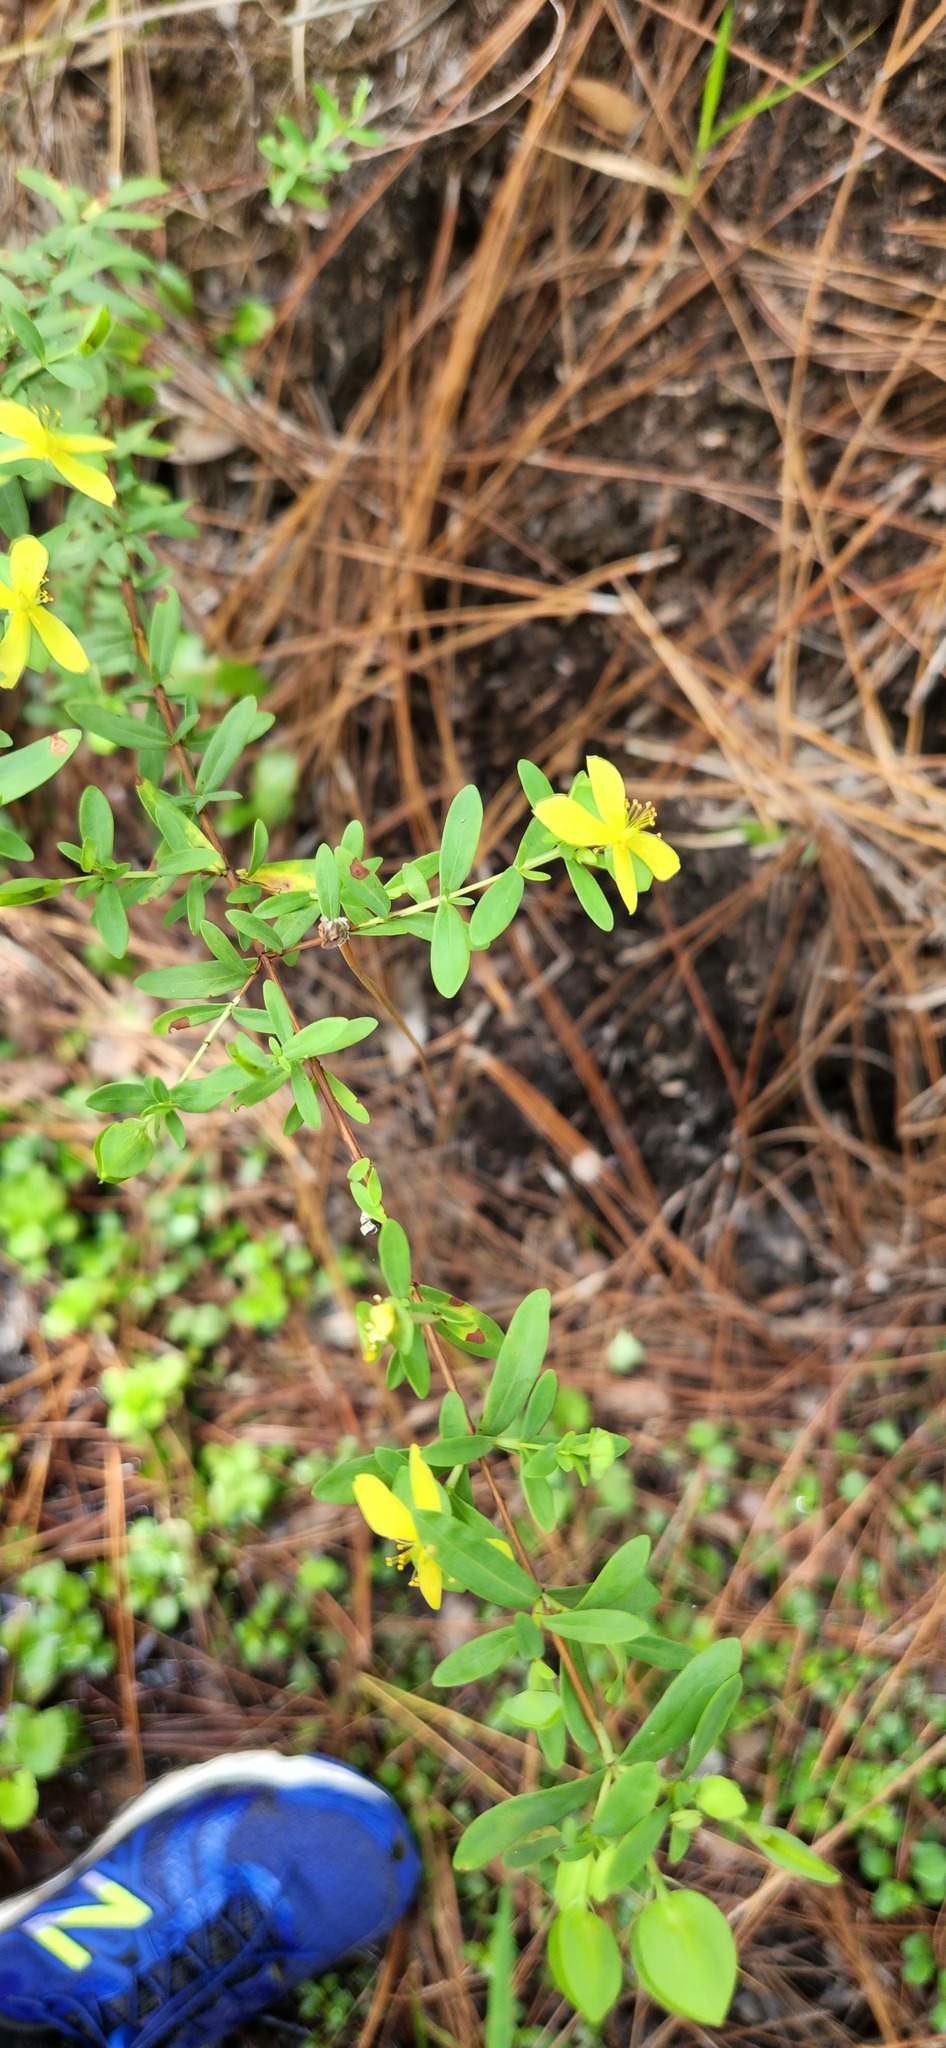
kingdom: Plantae
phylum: Tracheophyta
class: Magnoliopsida
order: Malpighiales
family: Hypericaceae
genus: Hypericum
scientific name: Hypericum hypericoides
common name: St. andrew's cross
